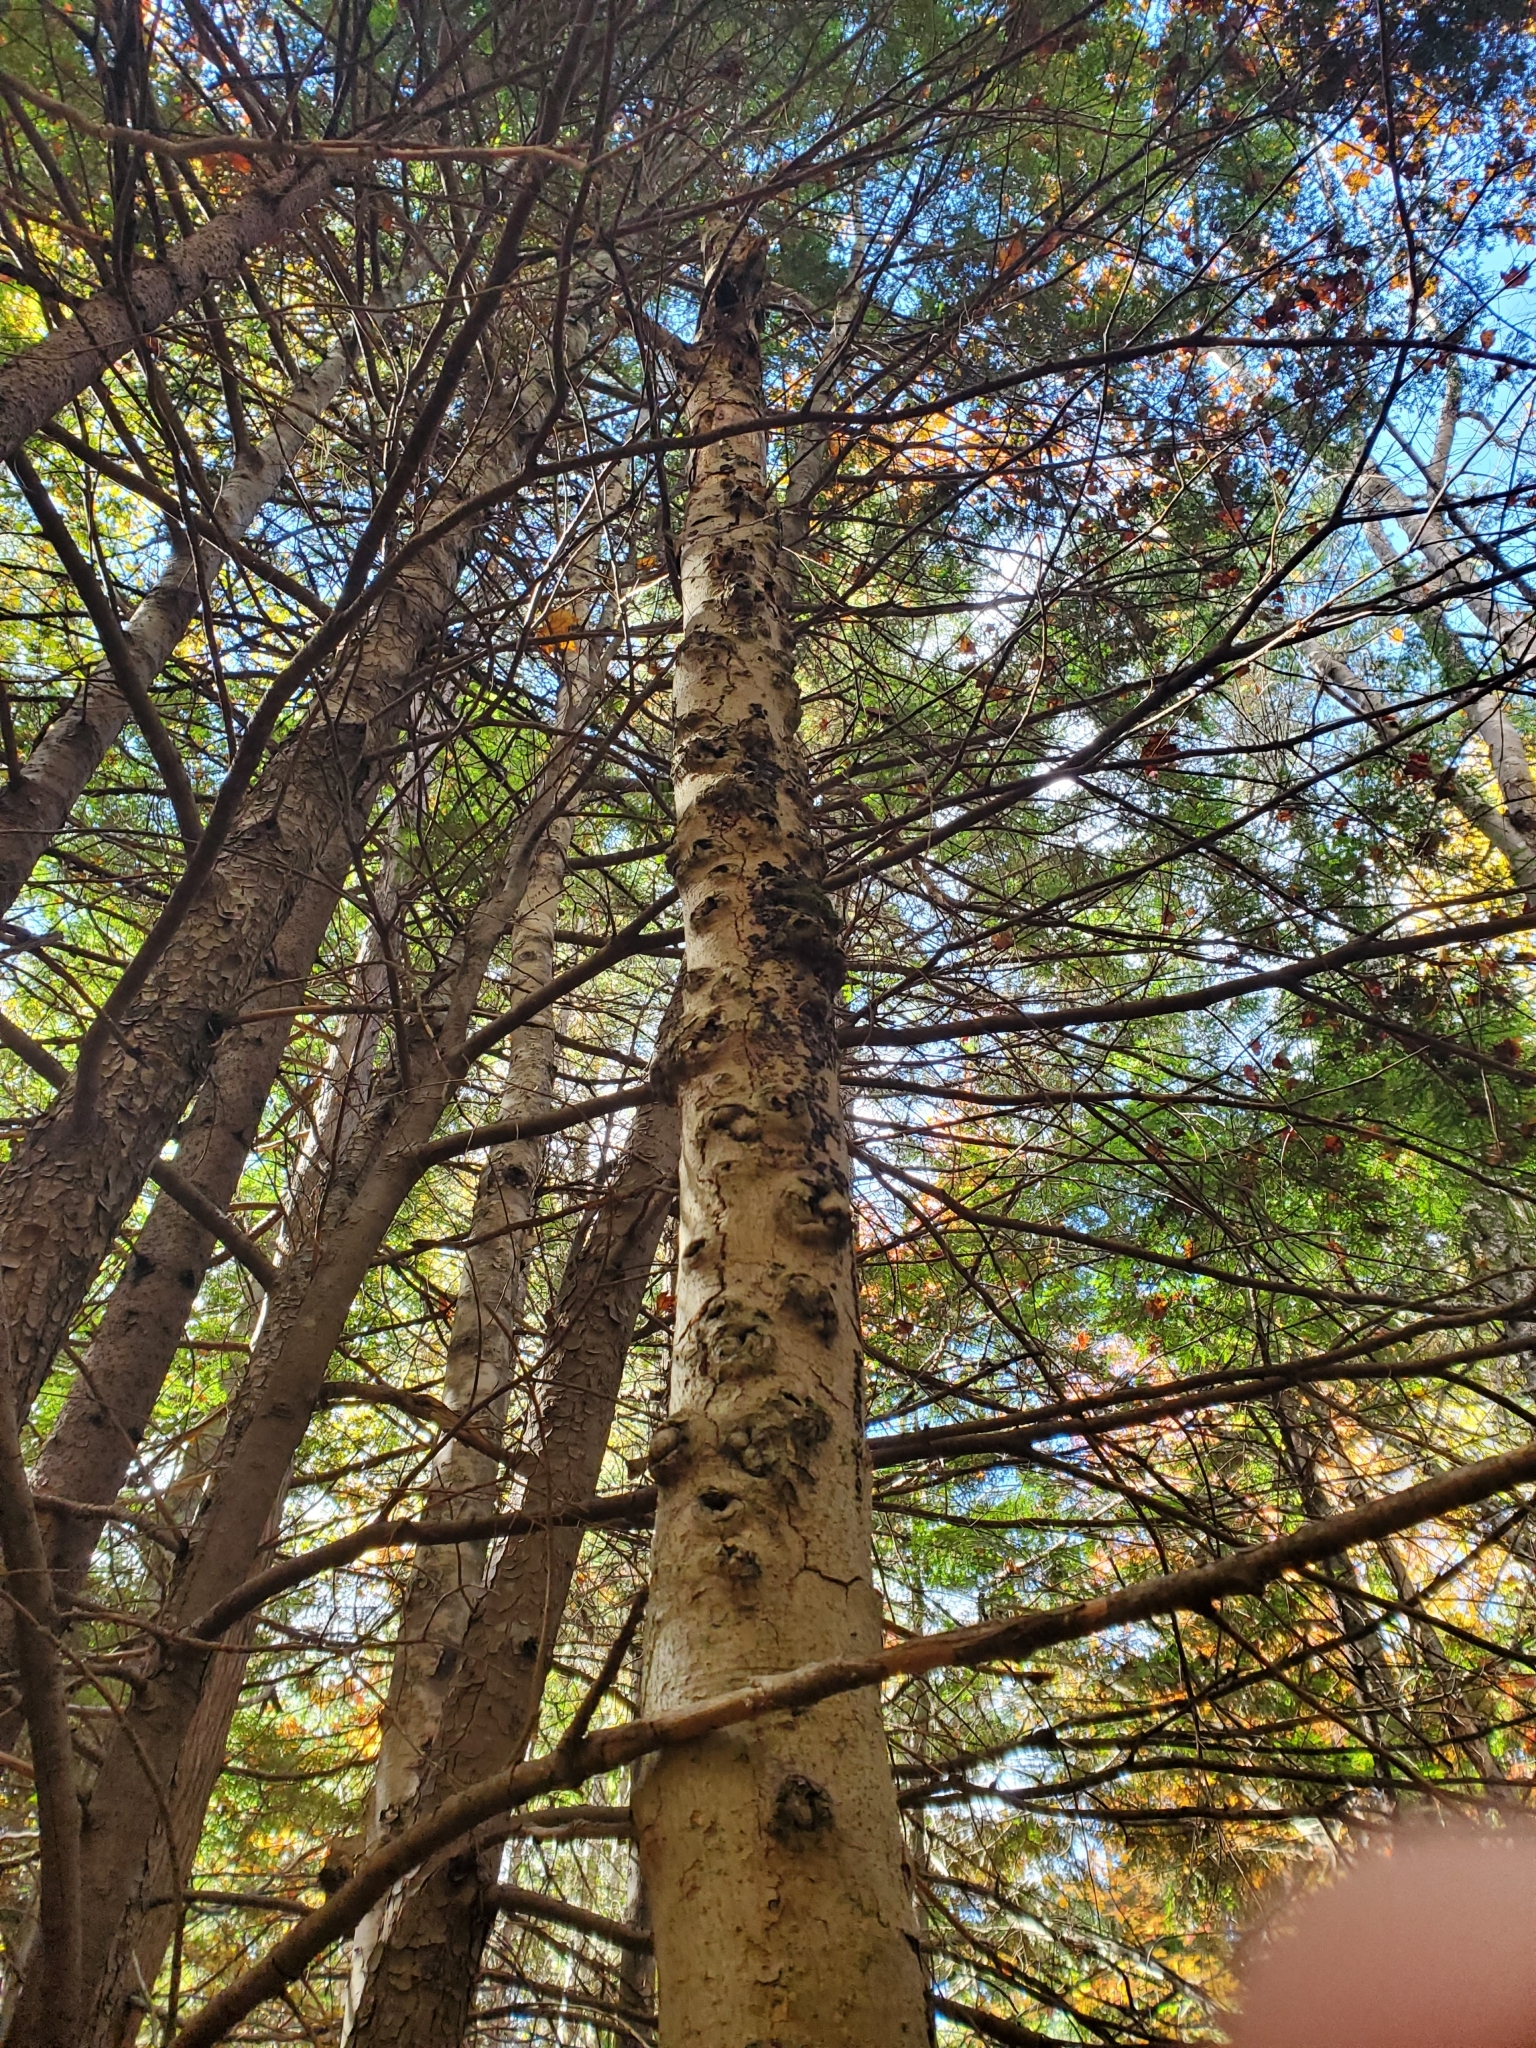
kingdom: Plantae
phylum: Tracheophyta
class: Magnoliopsida
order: Fagales
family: Fagaceae
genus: Fagus
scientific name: Fagus grandifolia
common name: American beech
